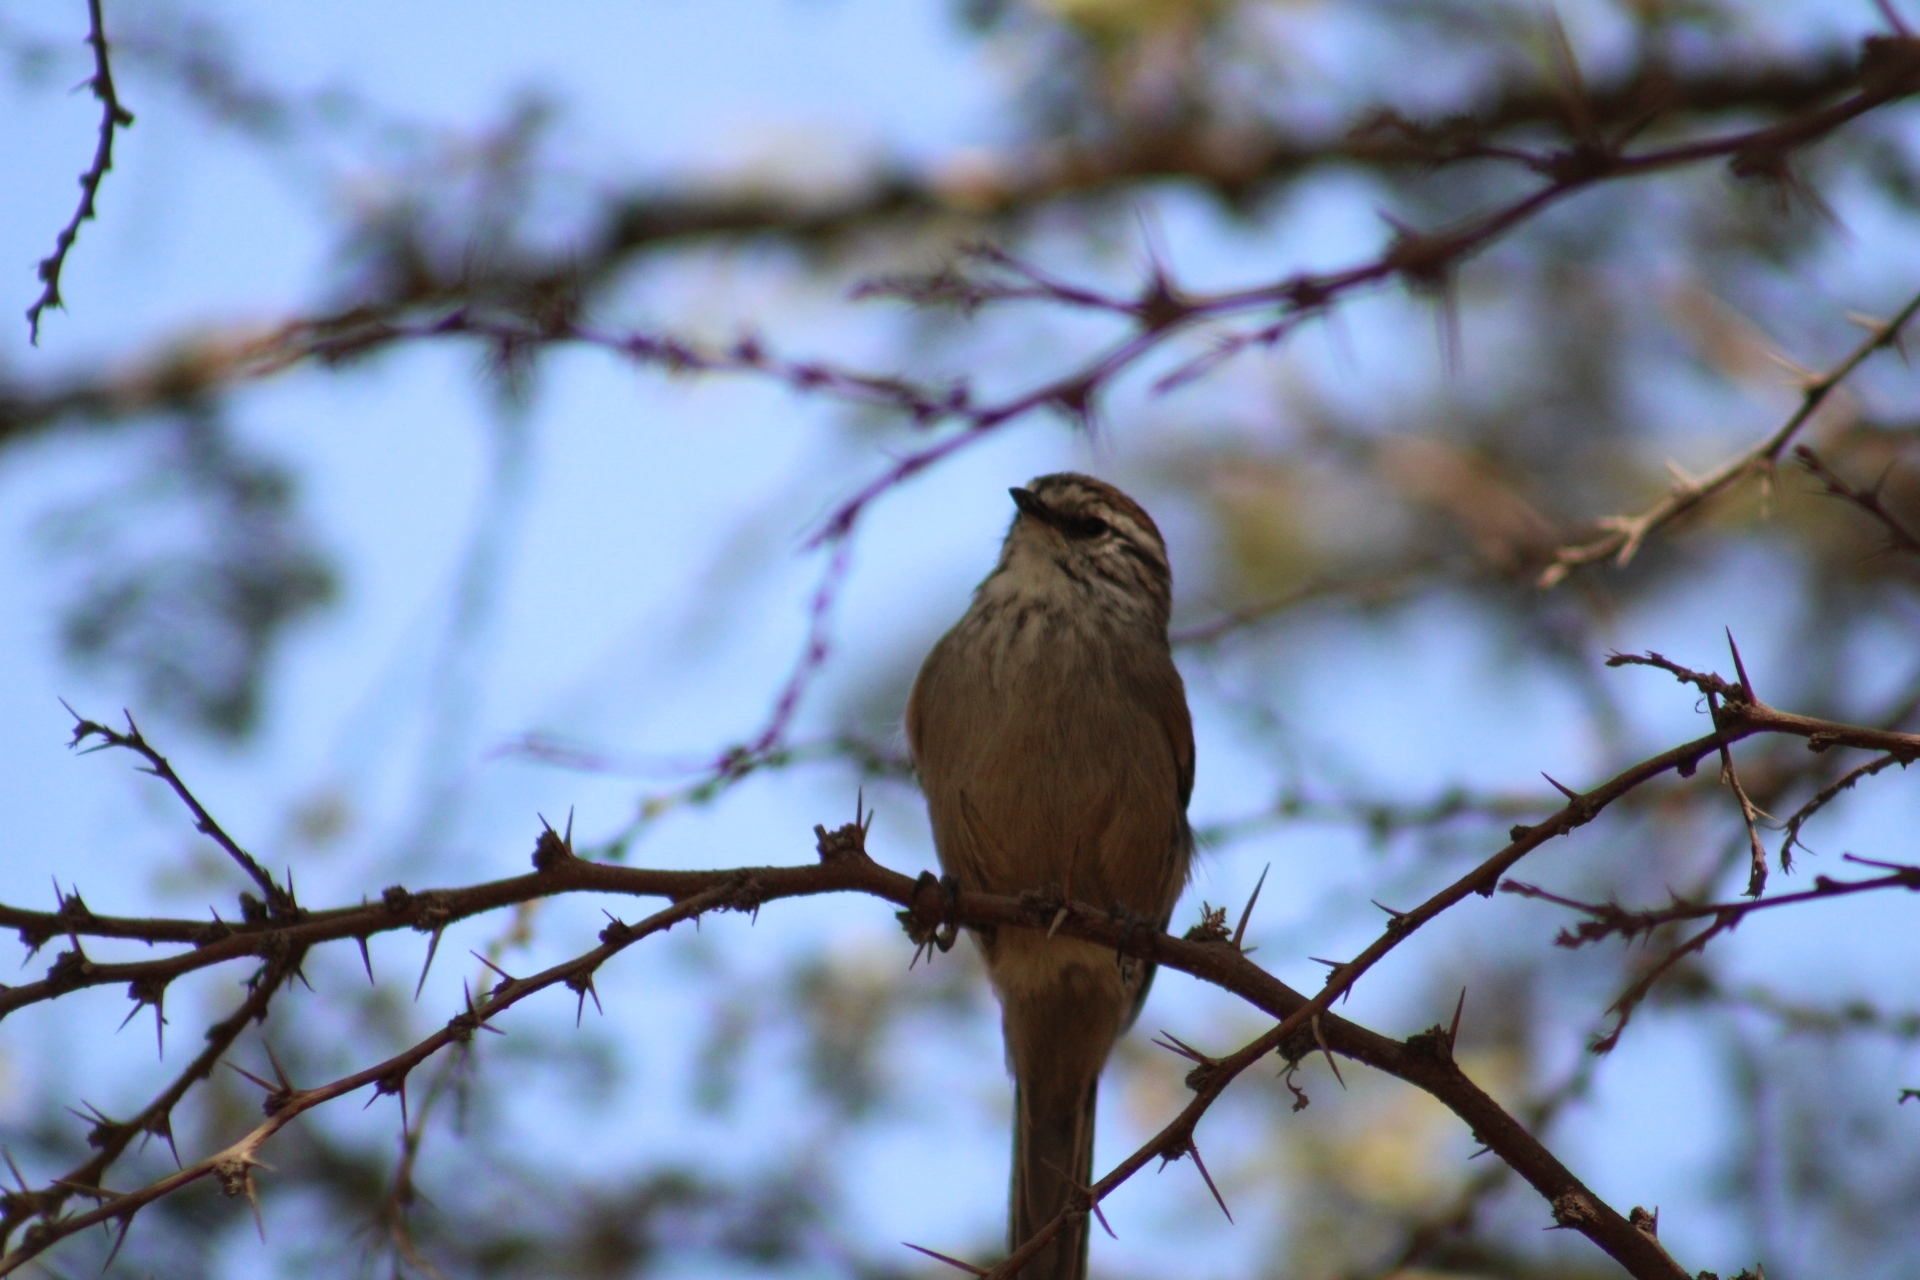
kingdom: Animalia
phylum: Chordata
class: Aves
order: Passeriformes
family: Furnariidae
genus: Leptasthenura
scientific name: Leptasthenura aegithaloides
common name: Plain-mantled tit-spinetail
